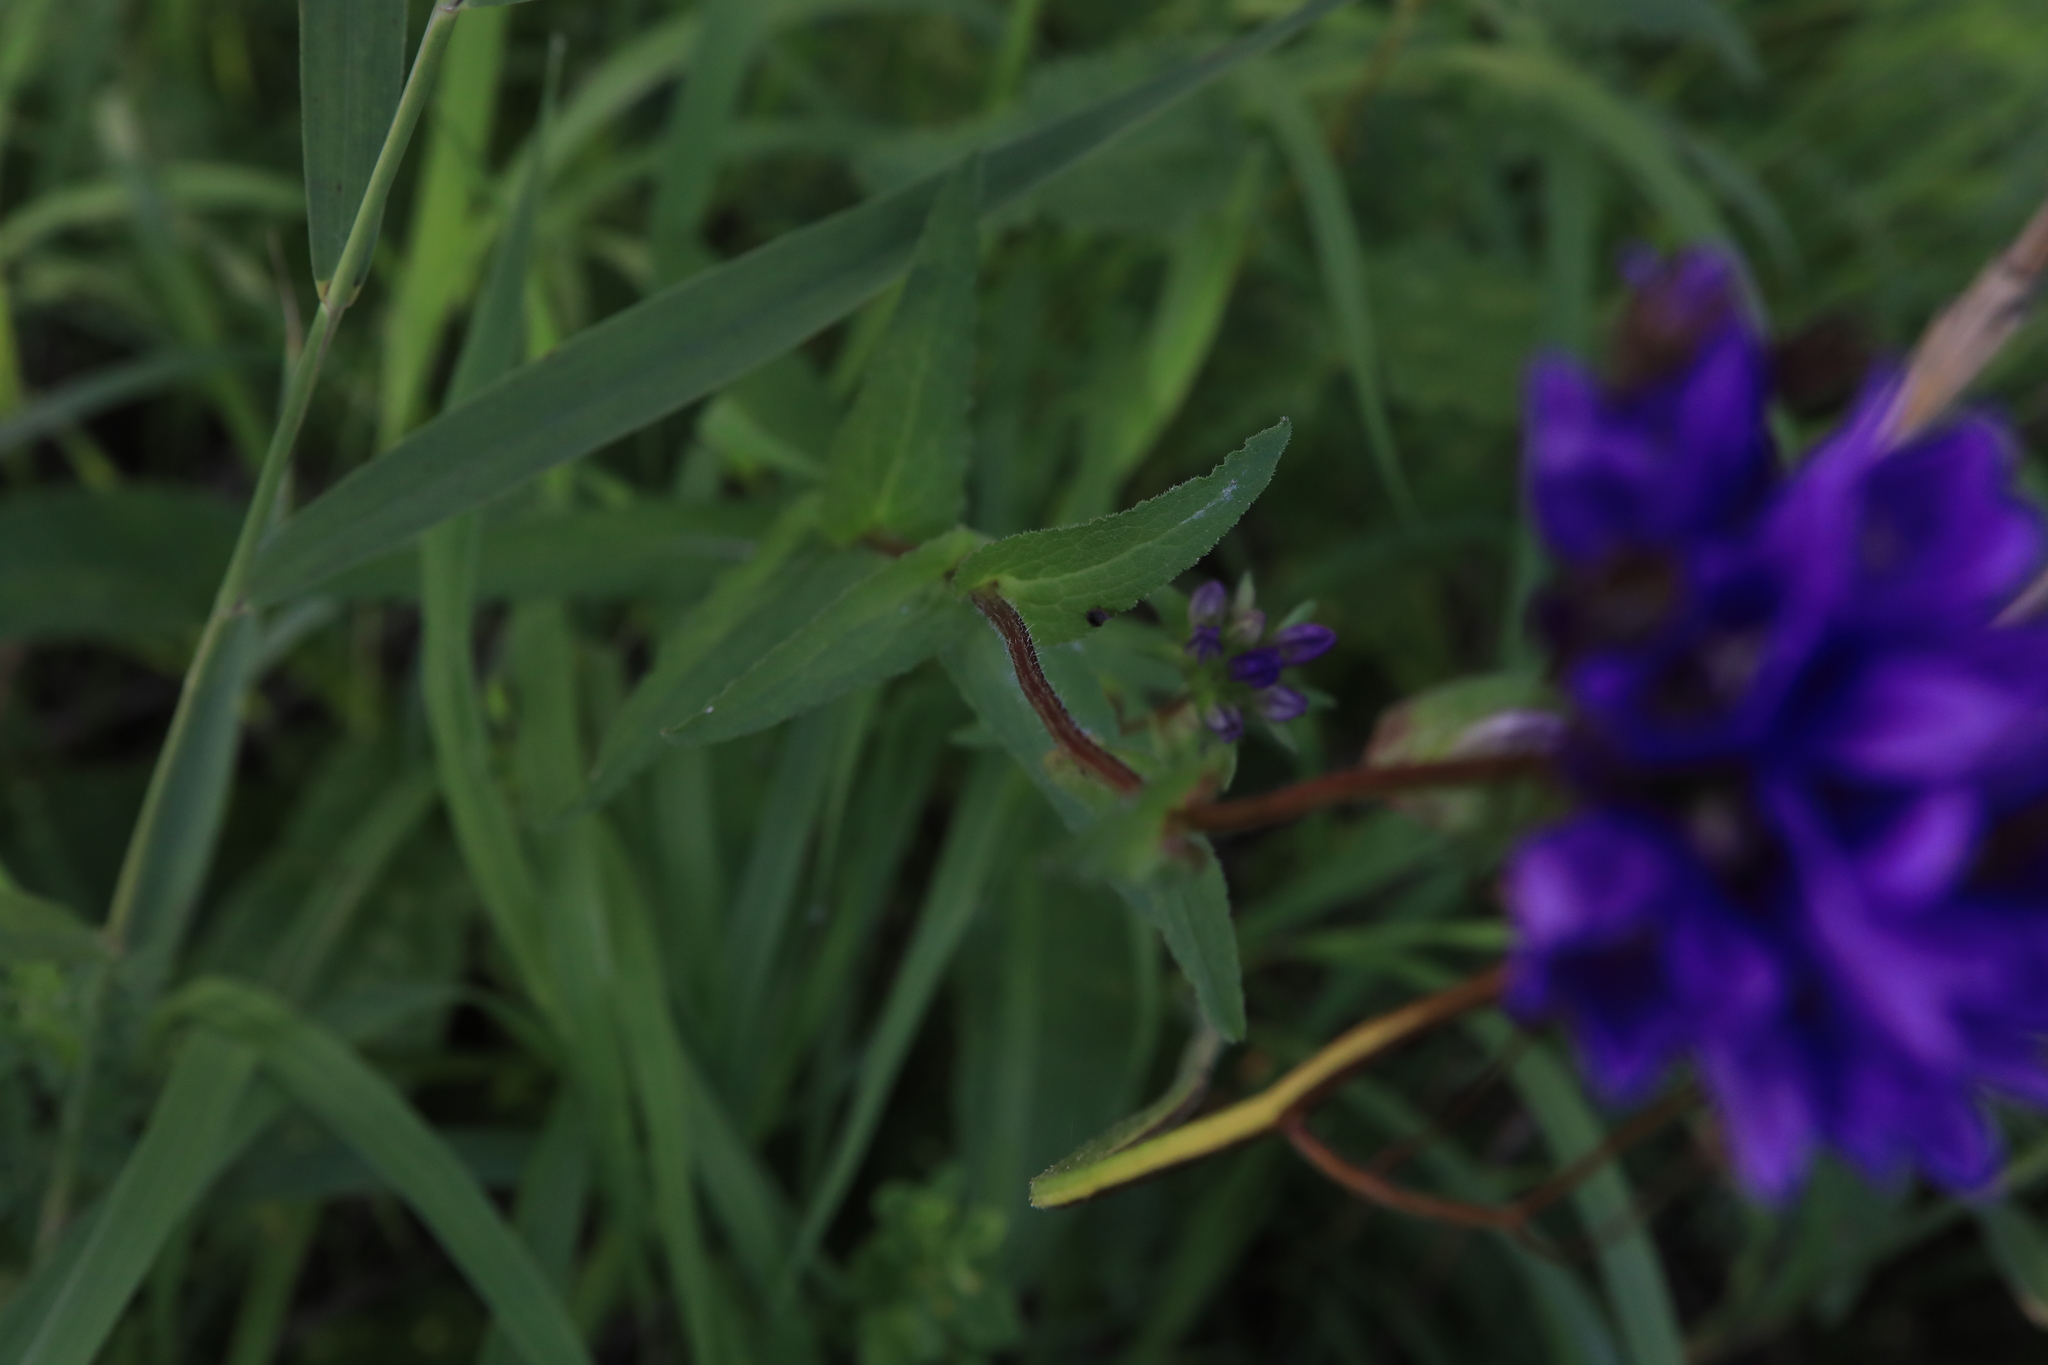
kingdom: Plantae
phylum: Tracheophyta
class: Magnoliopsida
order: Asterales
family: Campanulaceae
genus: Campanula
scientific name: Campanula glomerata
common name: Clustered bellflower
